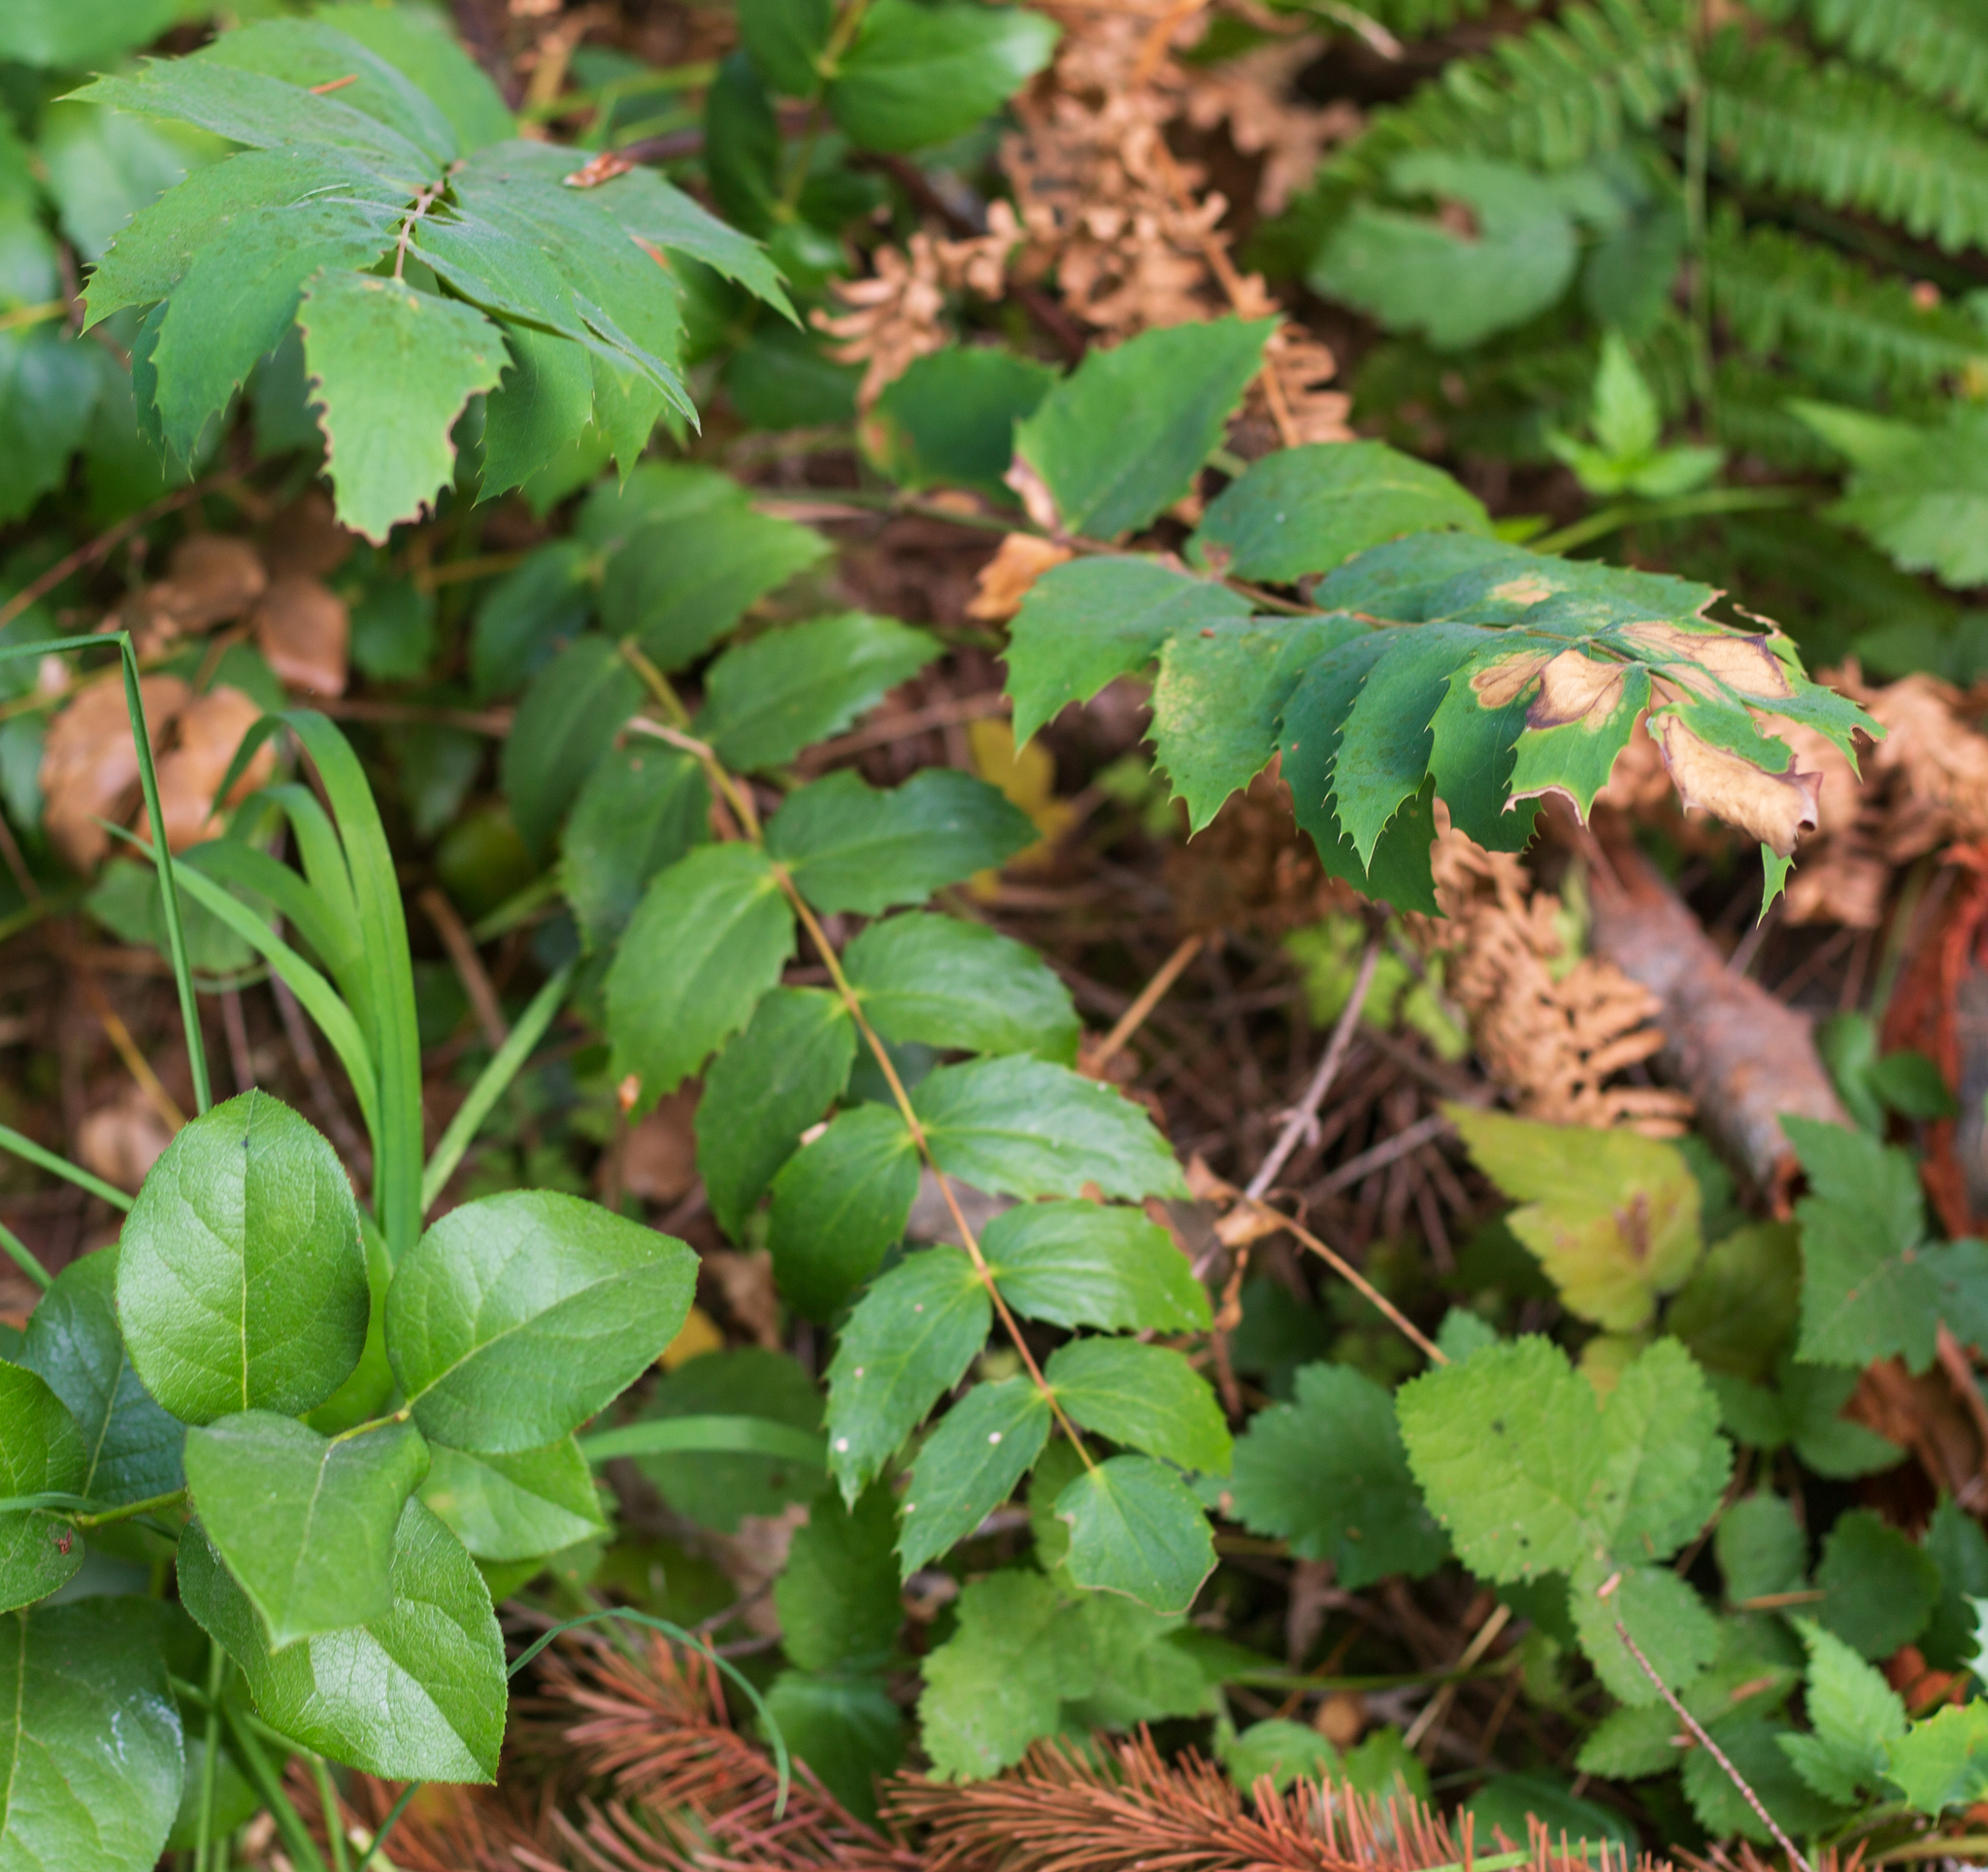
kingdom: Plantae
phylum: Tracheophyta
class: Magnoliopsida
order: Ranunculales
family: Berberidaceae
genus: Mahonia
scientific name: Mahonia nervosa
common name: Cascade oregon-grape
